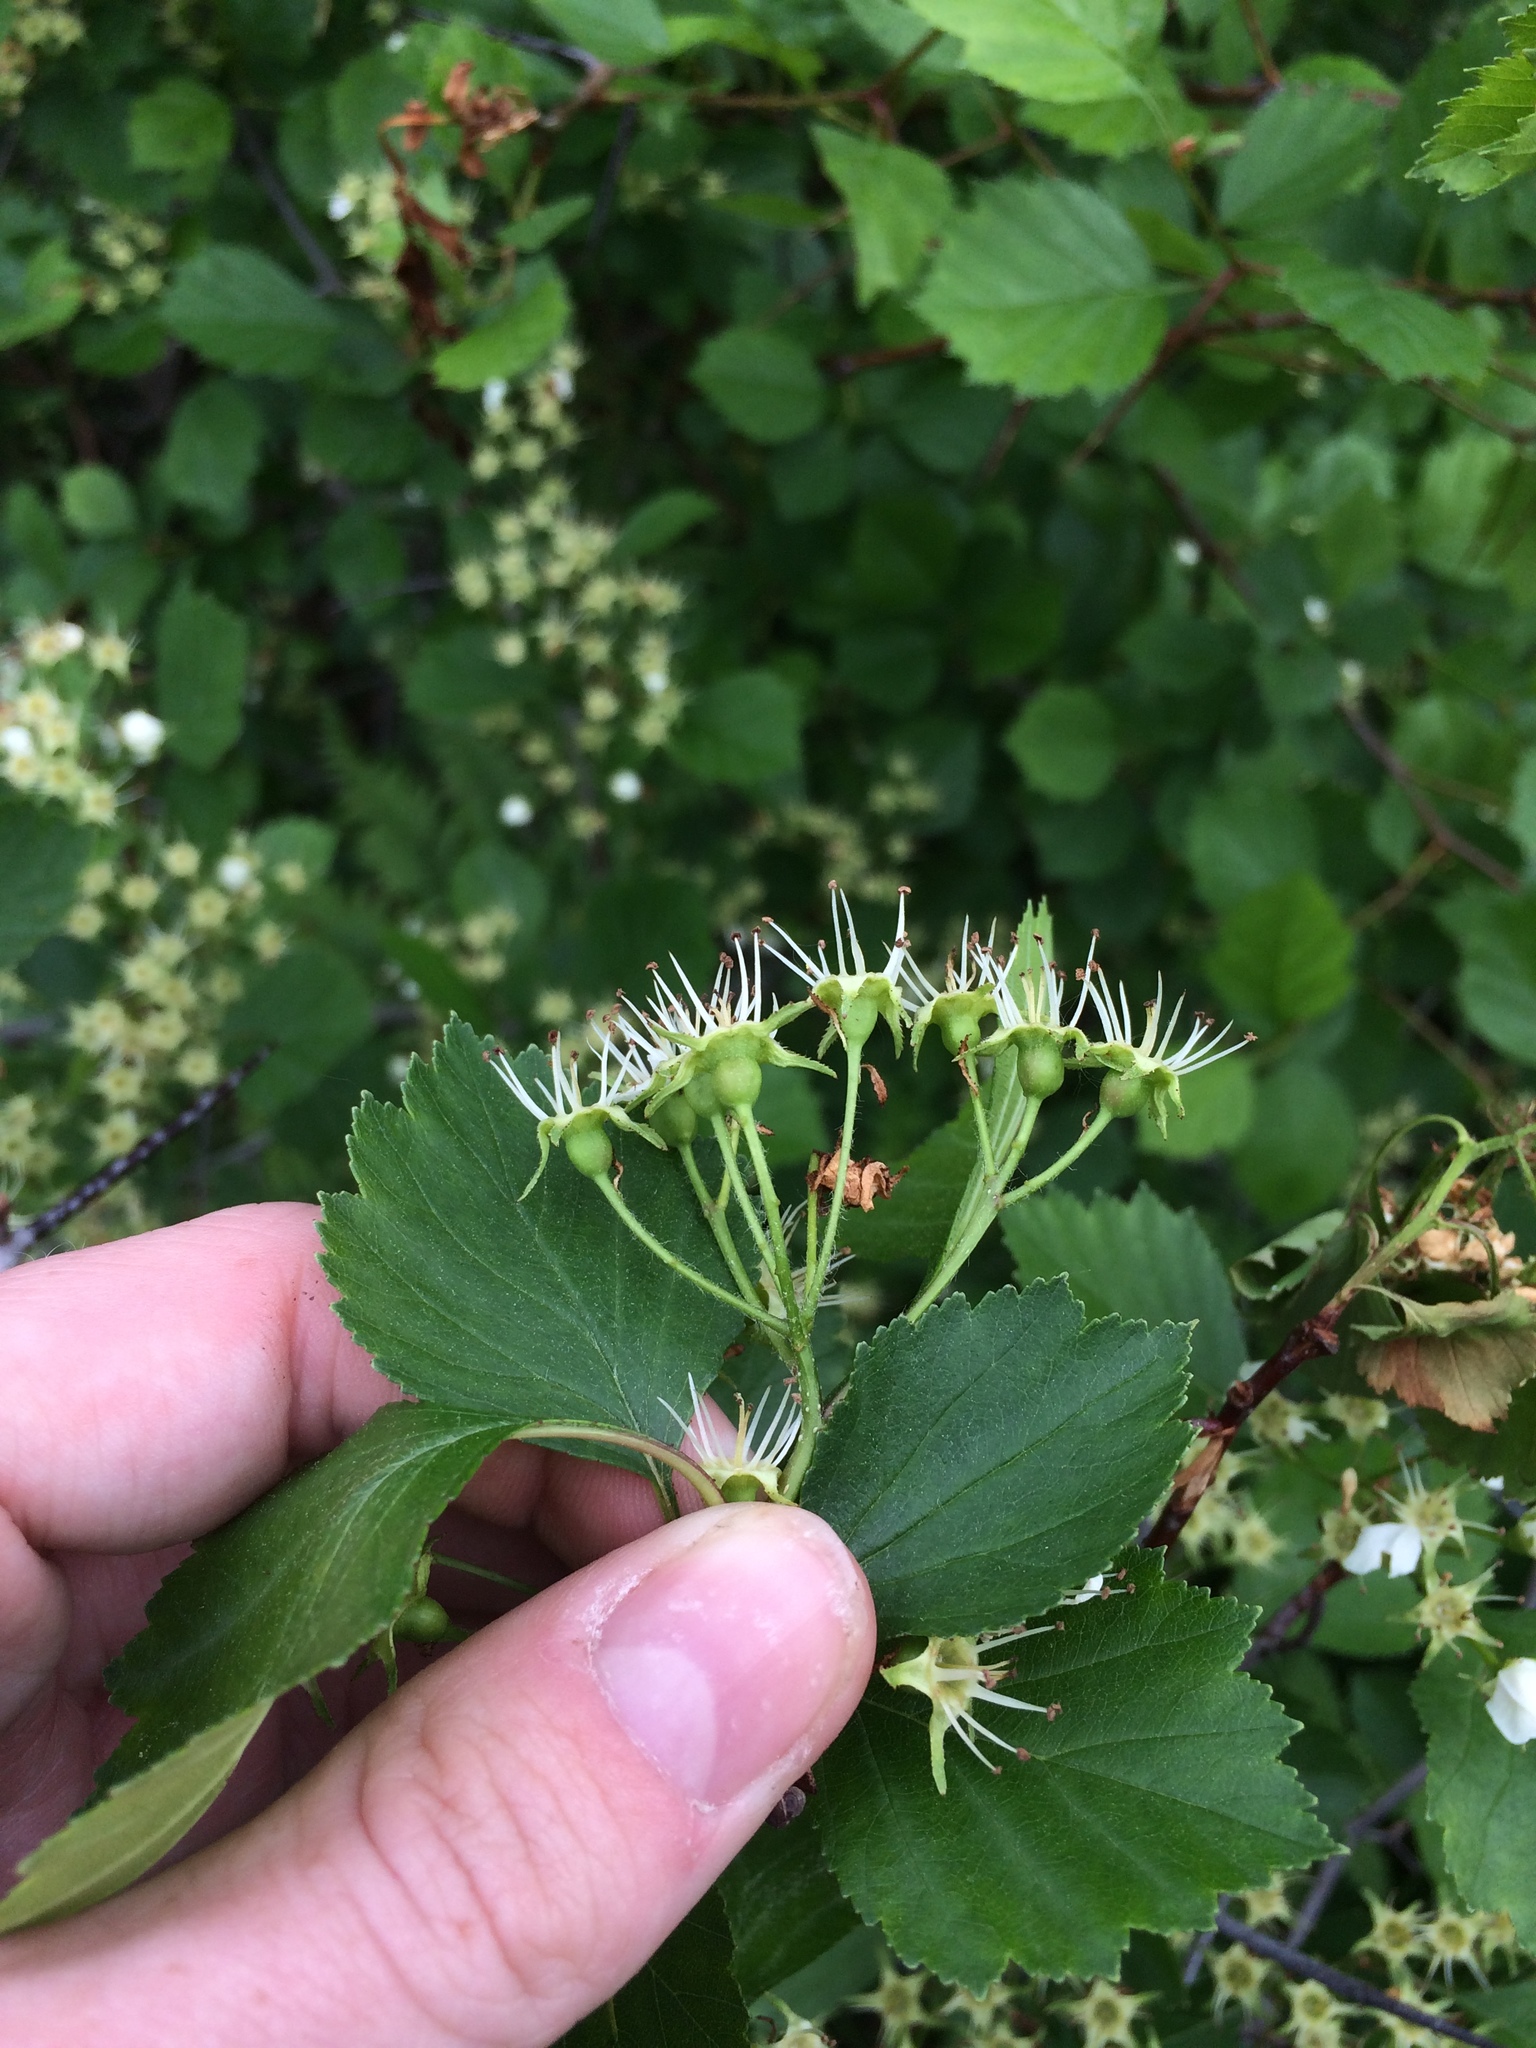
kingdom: Plantae
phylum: Tracheophyta
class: Magnoliopsida
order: Rosales
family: Rosaceae
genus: Crataegus
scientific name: Crataegus chrysocarpa
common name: Fire-berry hawthorn
